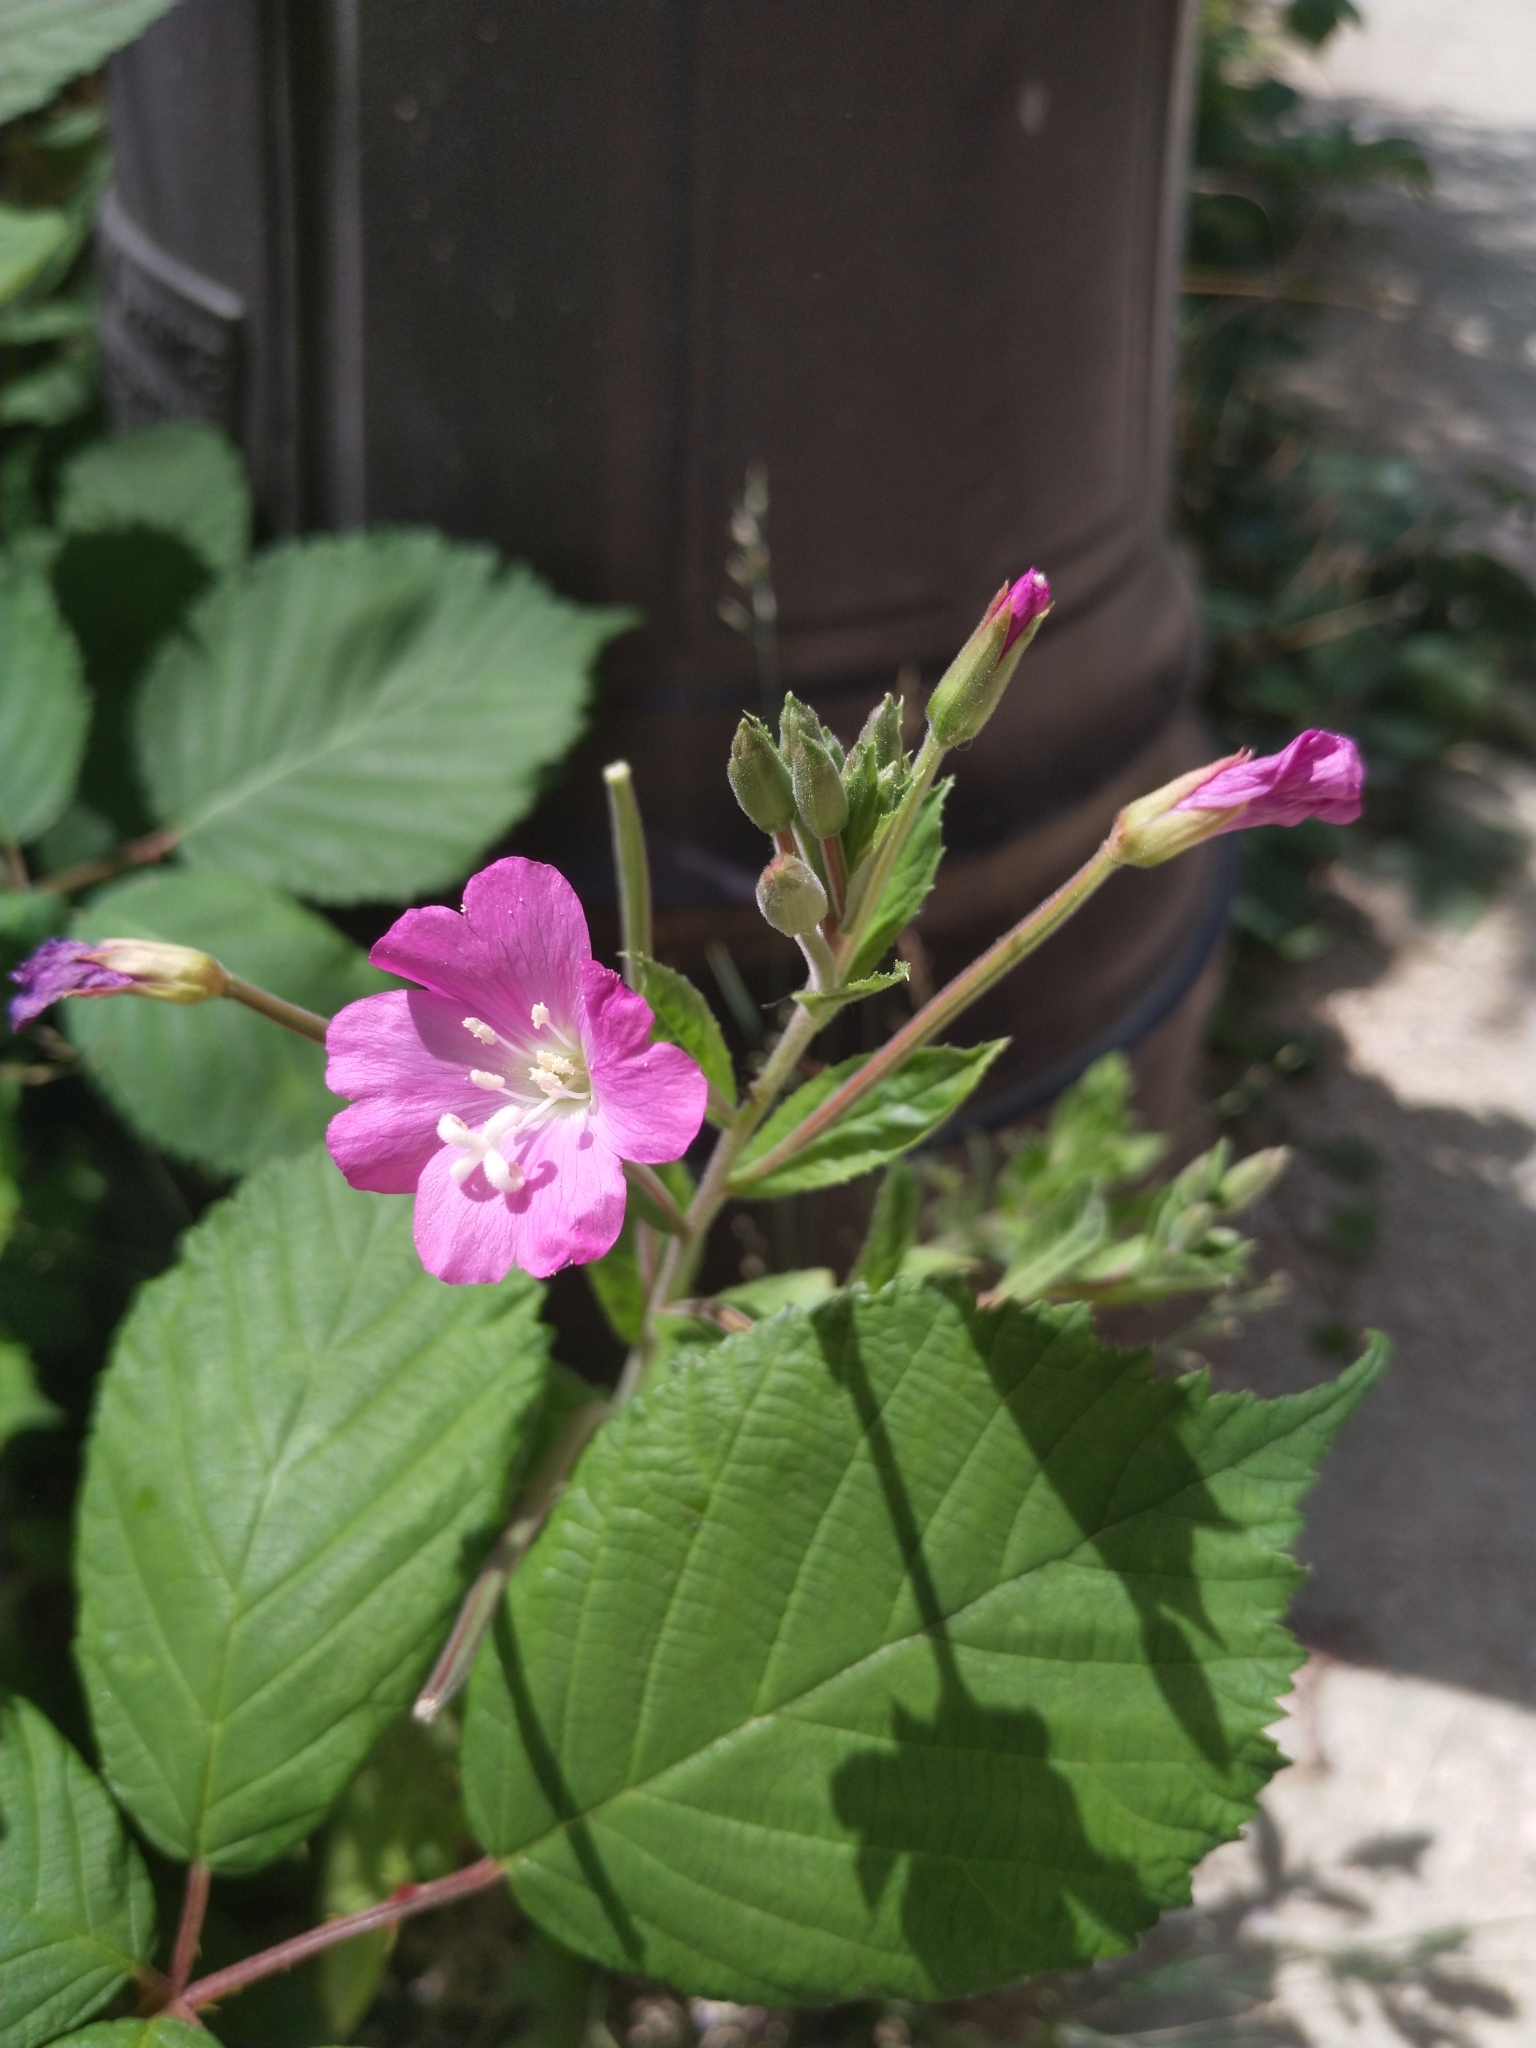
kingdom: Plantae
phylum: Tracheophyta
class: Magnoliopsida
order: Myrtales
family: Onagraceae
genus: Epilobium
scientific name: Epilobium hirsutum
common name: Great willowherb
